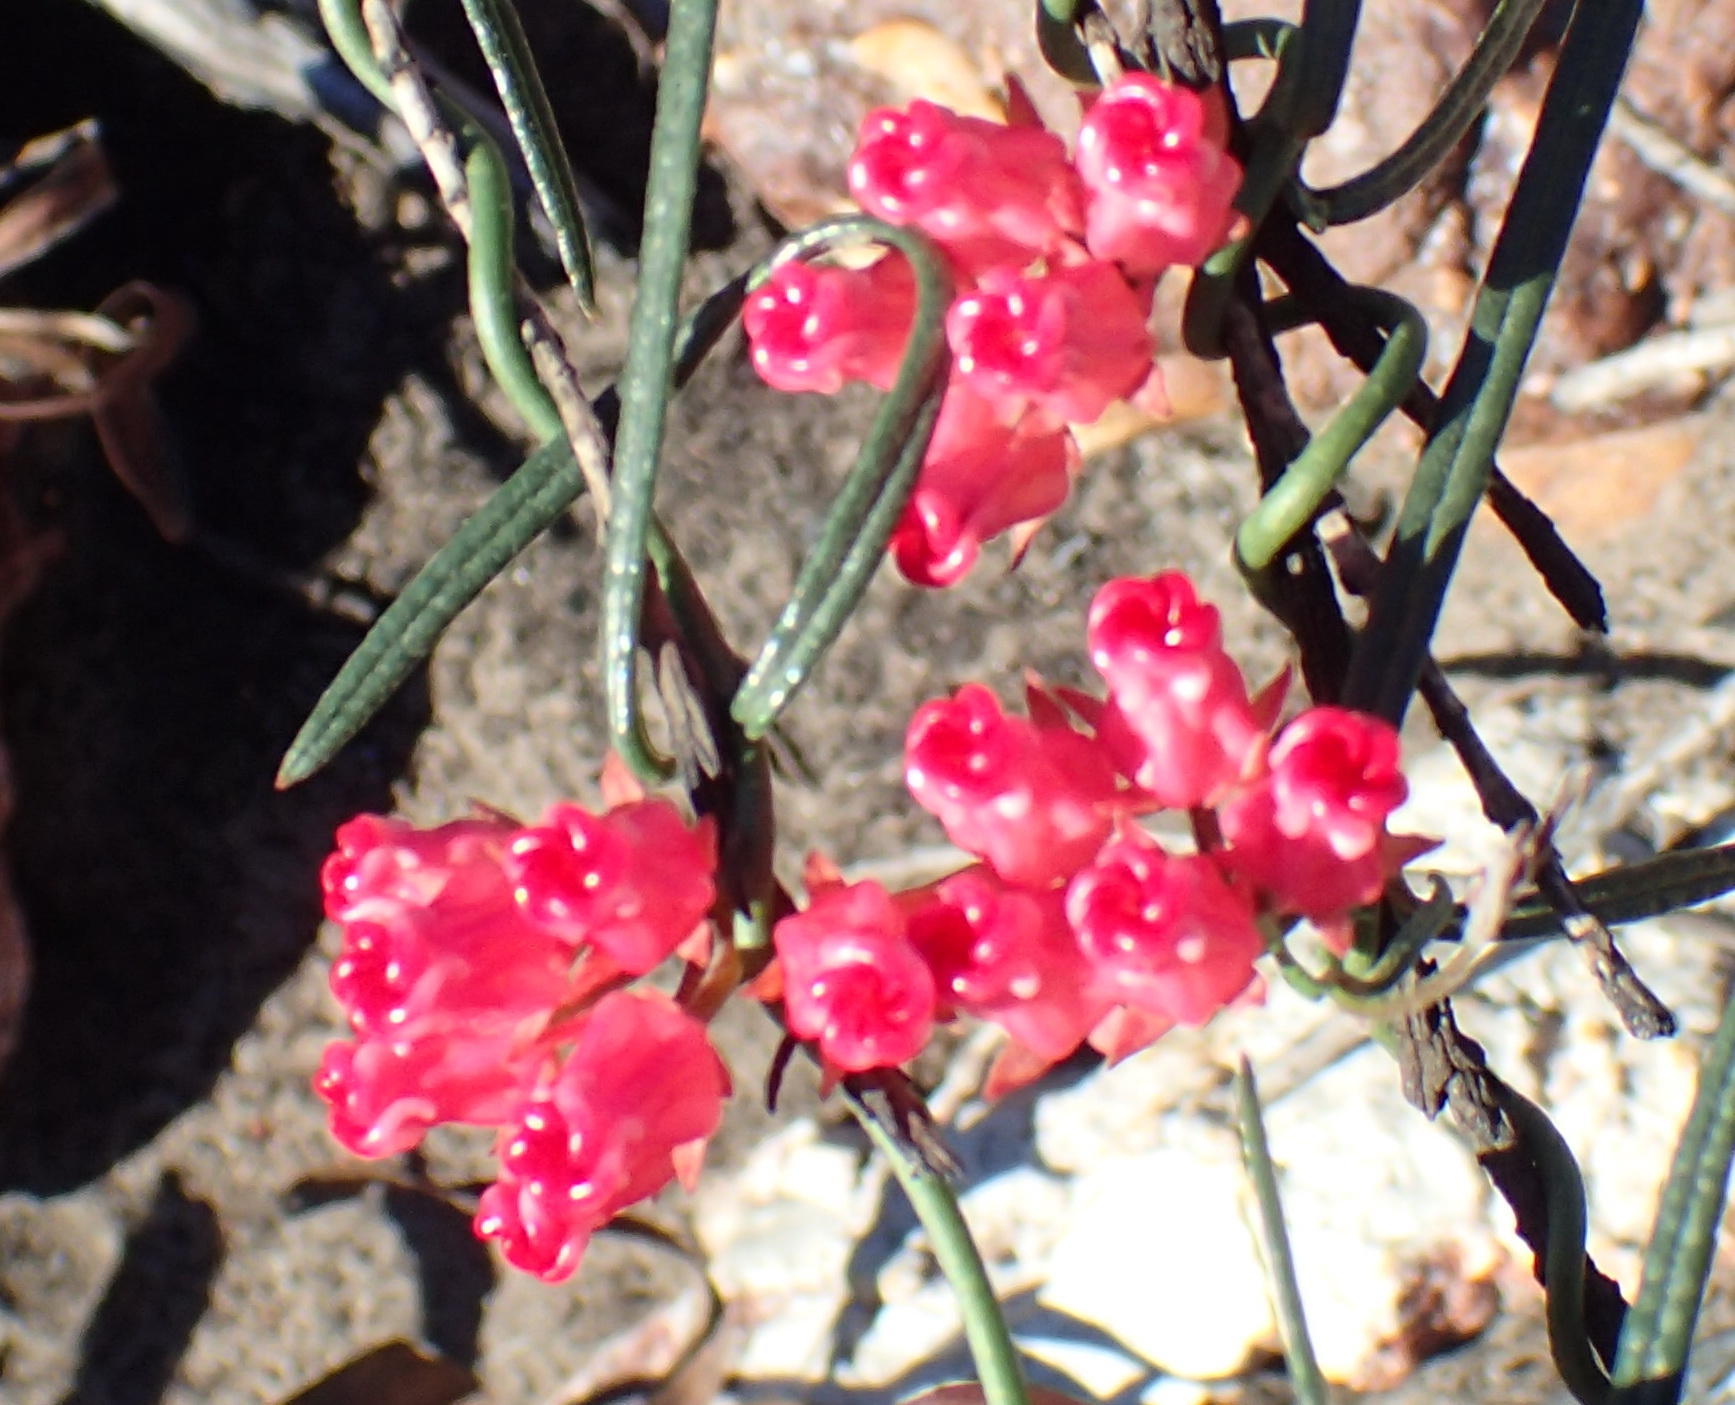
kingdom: Plantae
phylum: Tracheophyta
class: Magnoliopsida
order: Gentianales
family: Apocynaceae
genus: Microloma
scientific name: Microloma tenuifolium
